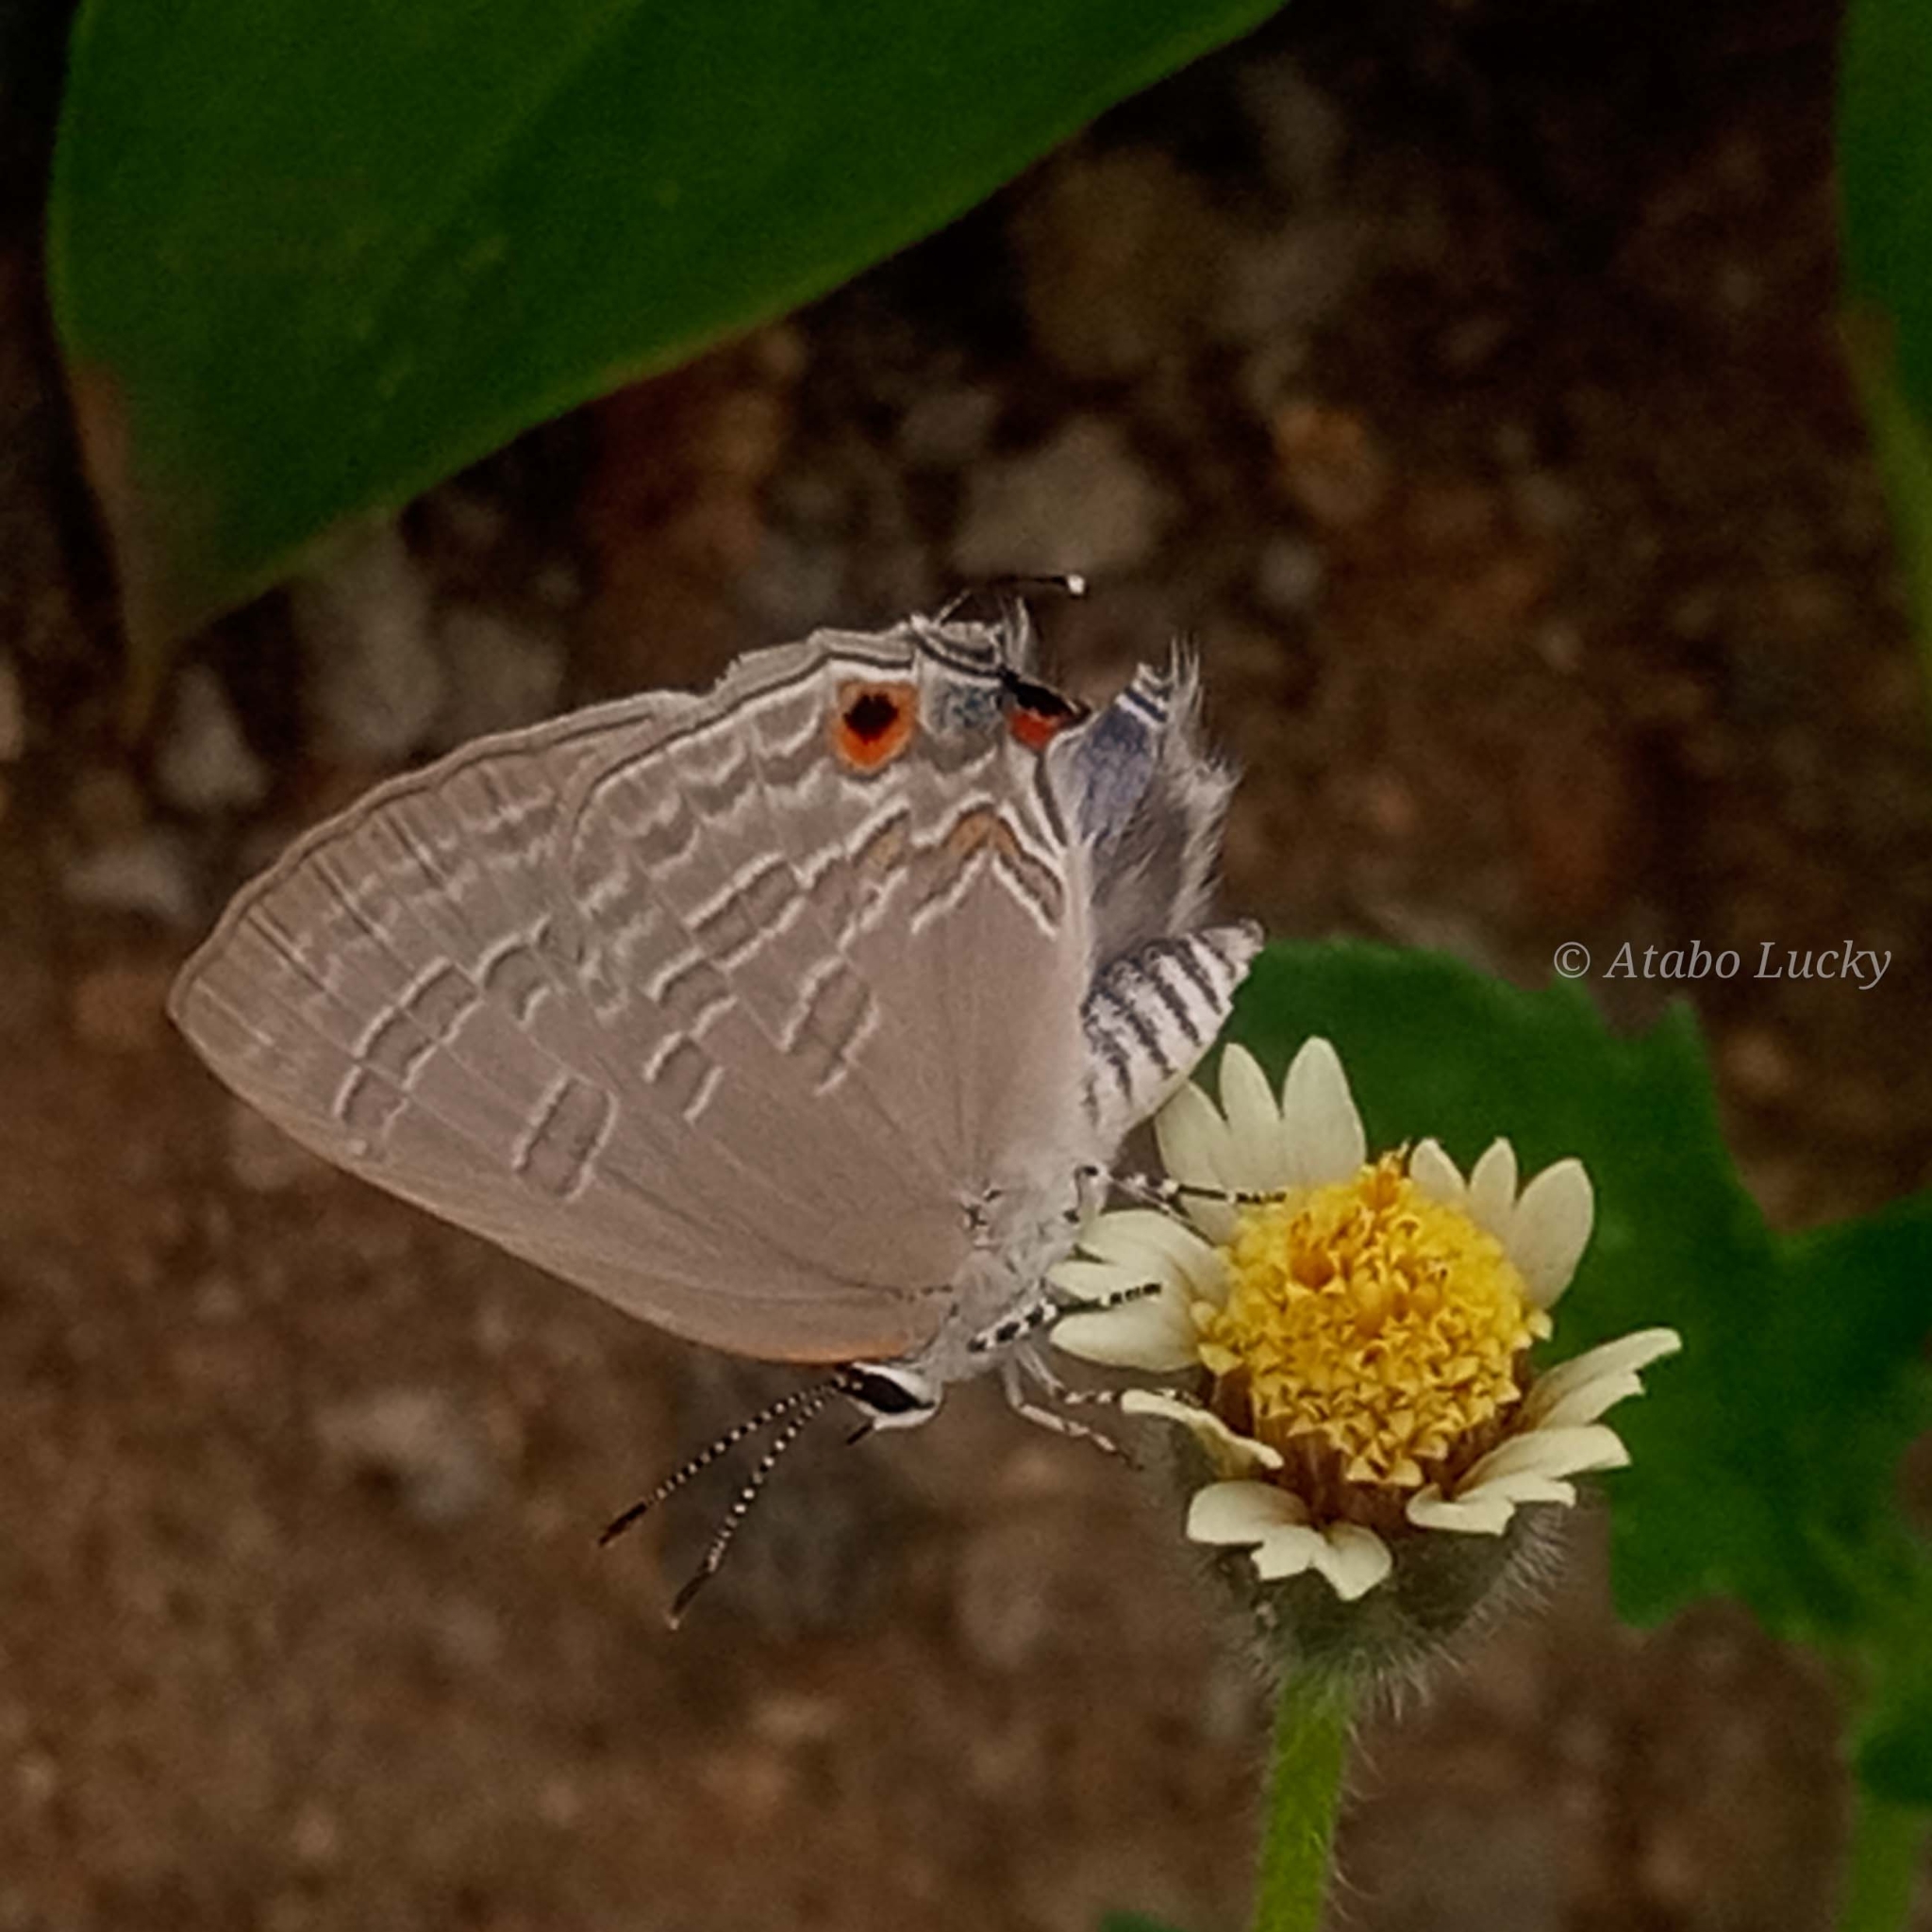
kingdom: Animalia
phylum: Arthropoda
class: Insecta
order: Lepidoptera
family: Lycaenidae
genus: Pilodeudorix
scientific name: Pilodeudorix
